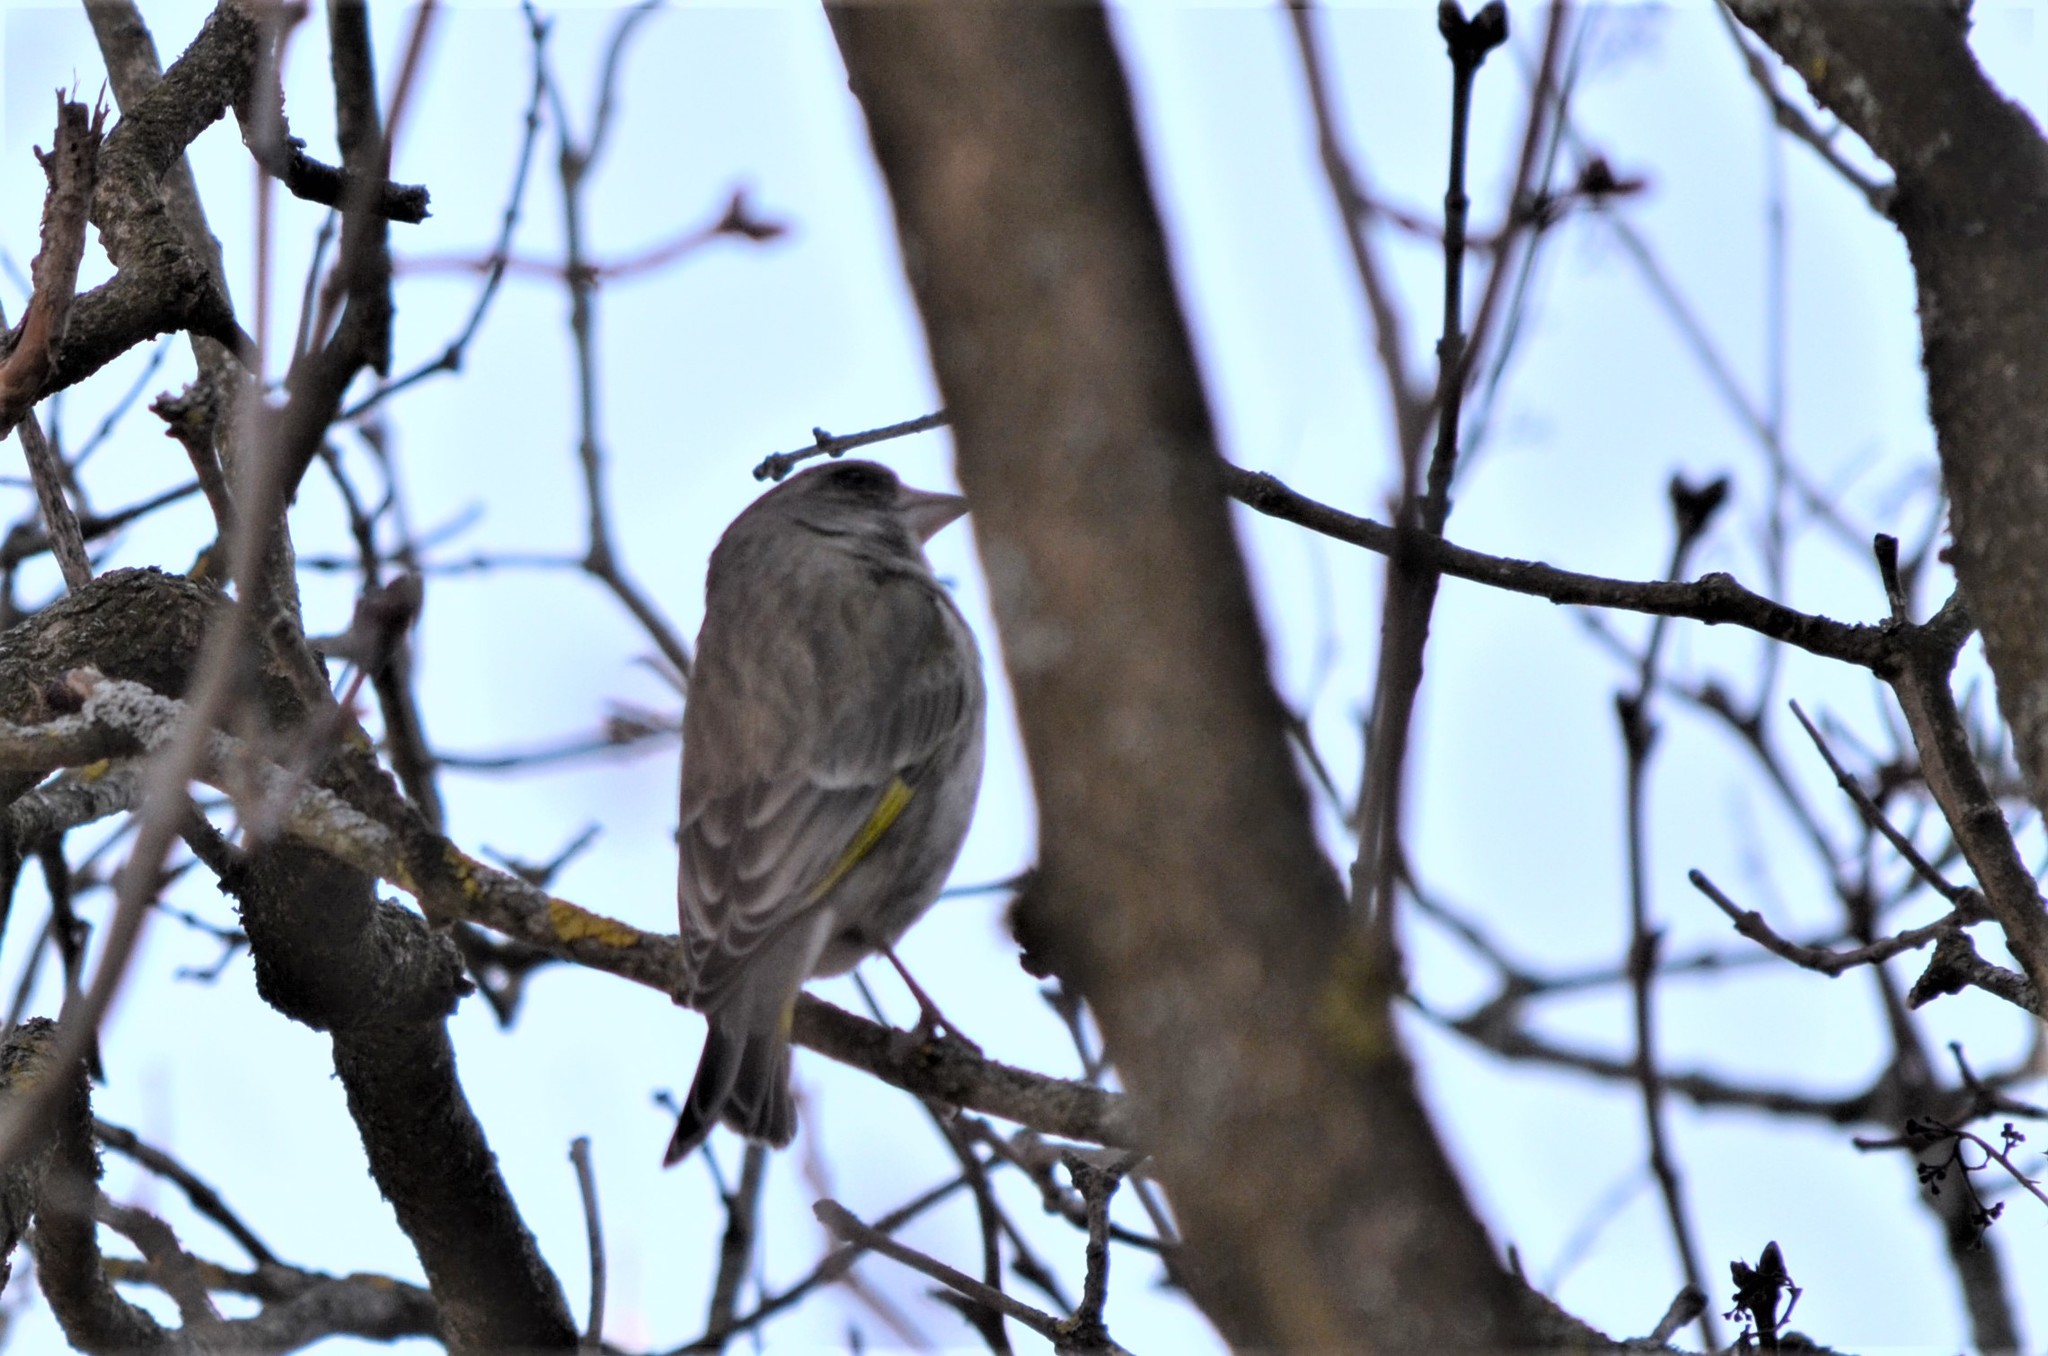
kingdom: Plantae
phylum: Tracheophyta
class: Liliopsida
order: Poales
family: Poaceae
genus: Chloris
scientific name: Chloris chloris
